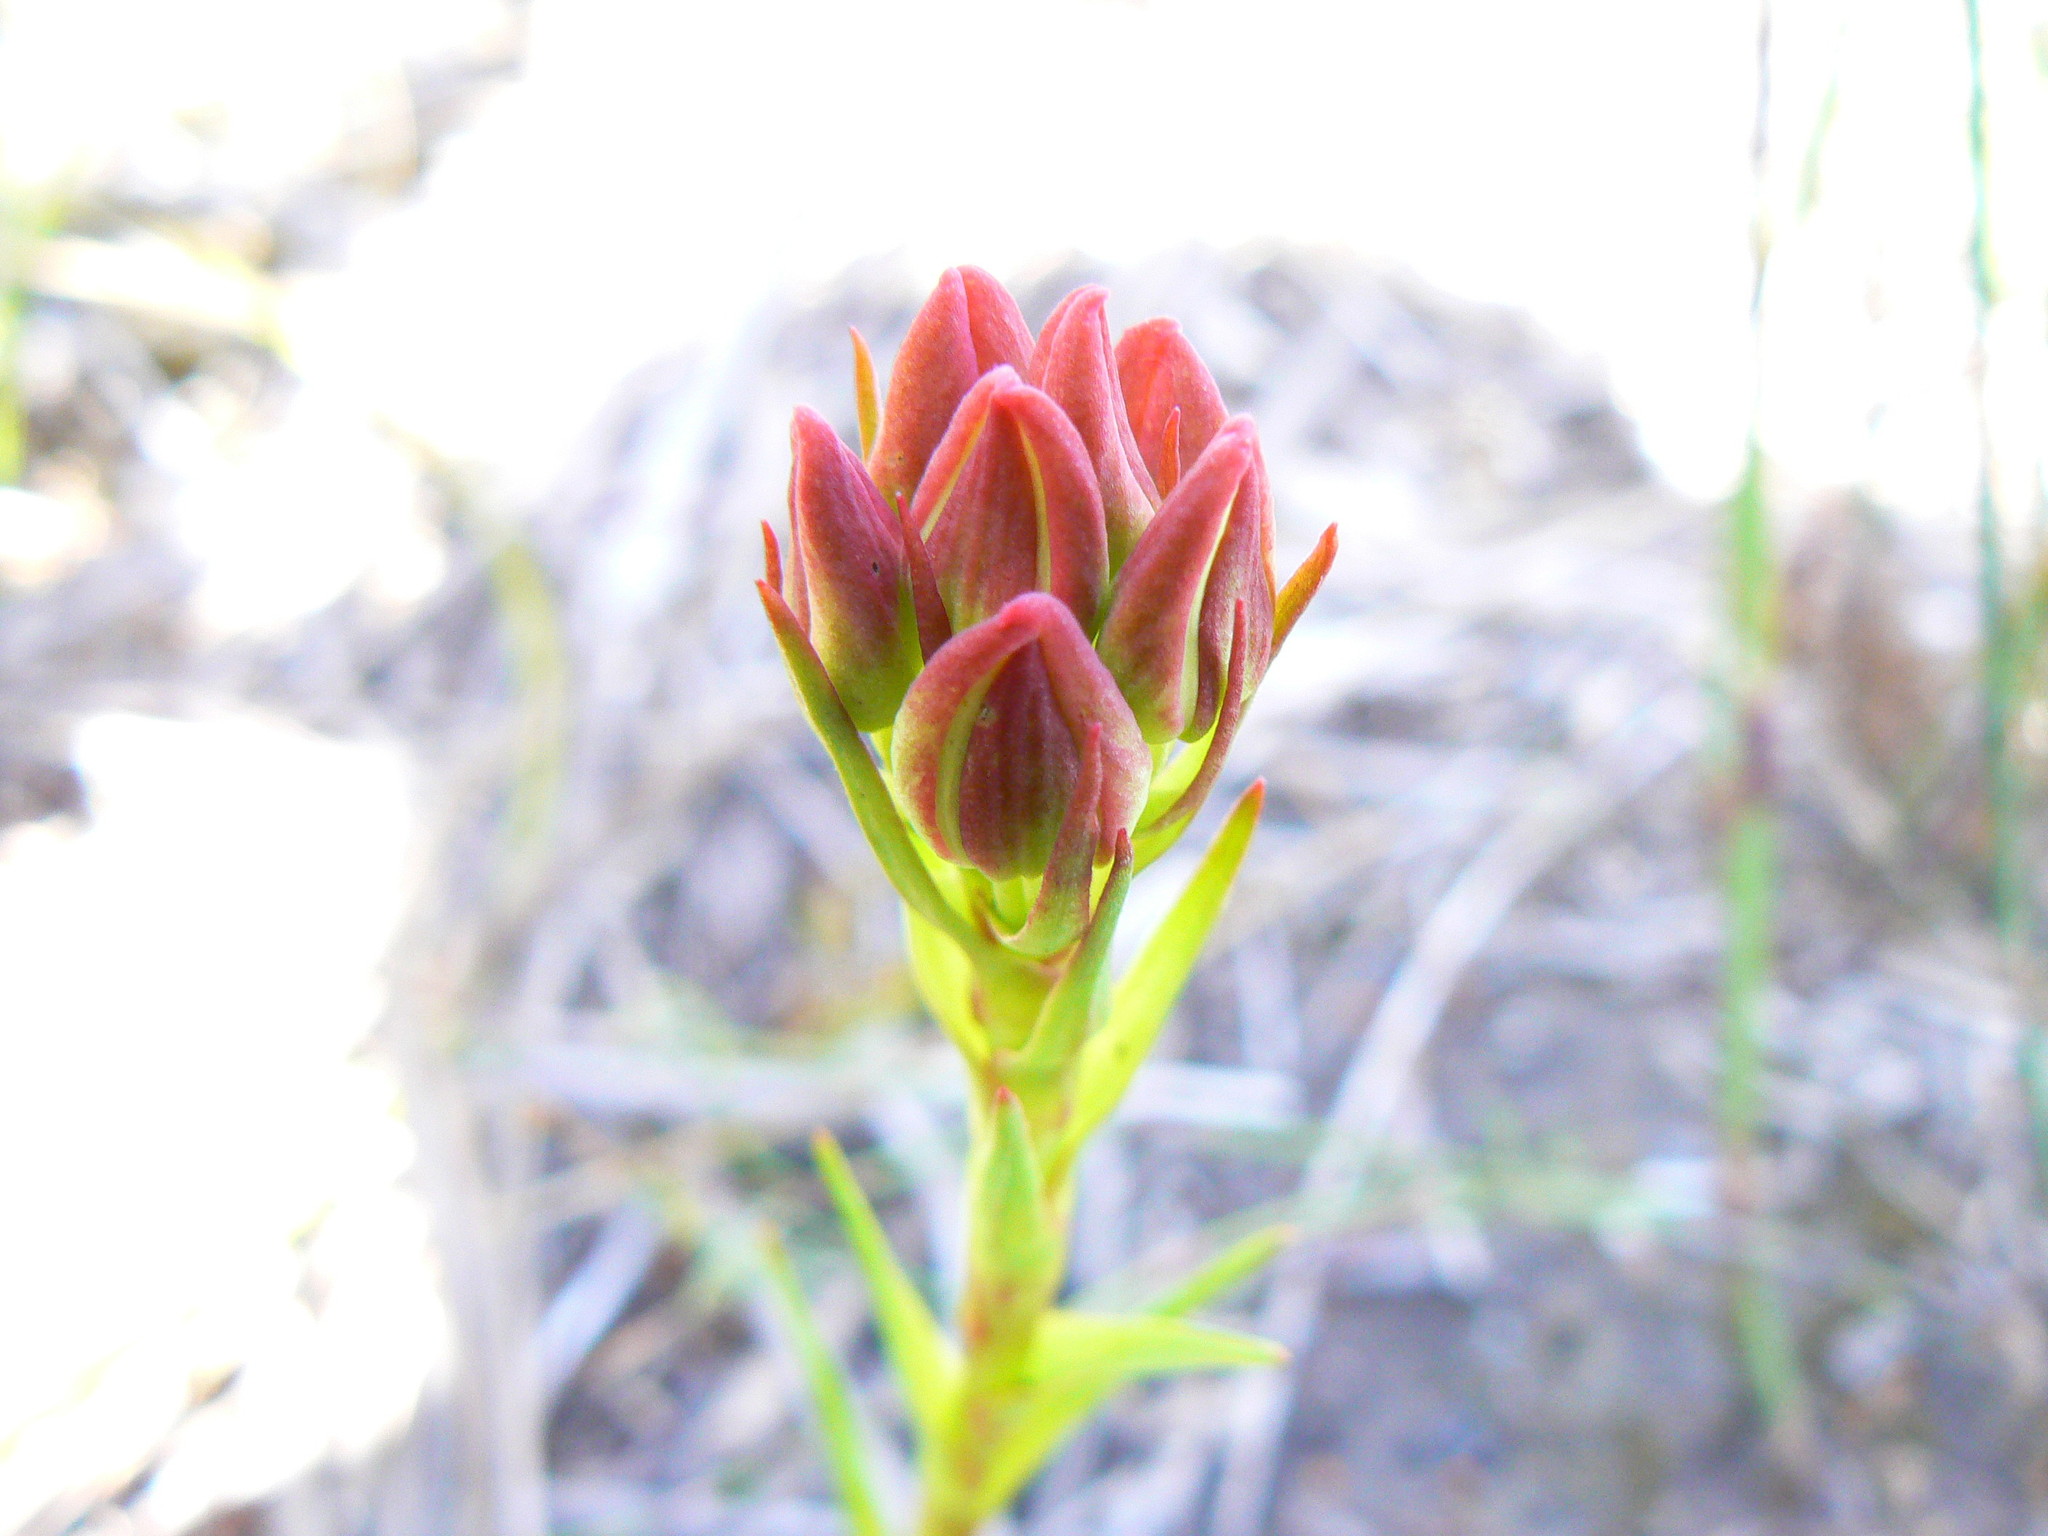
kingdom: Plantae
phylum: Tracheophyta
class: Liliopsida
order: Asparagales
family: Orchidaceae
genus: Ceratandra
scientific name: Ceratandra grandiflora
